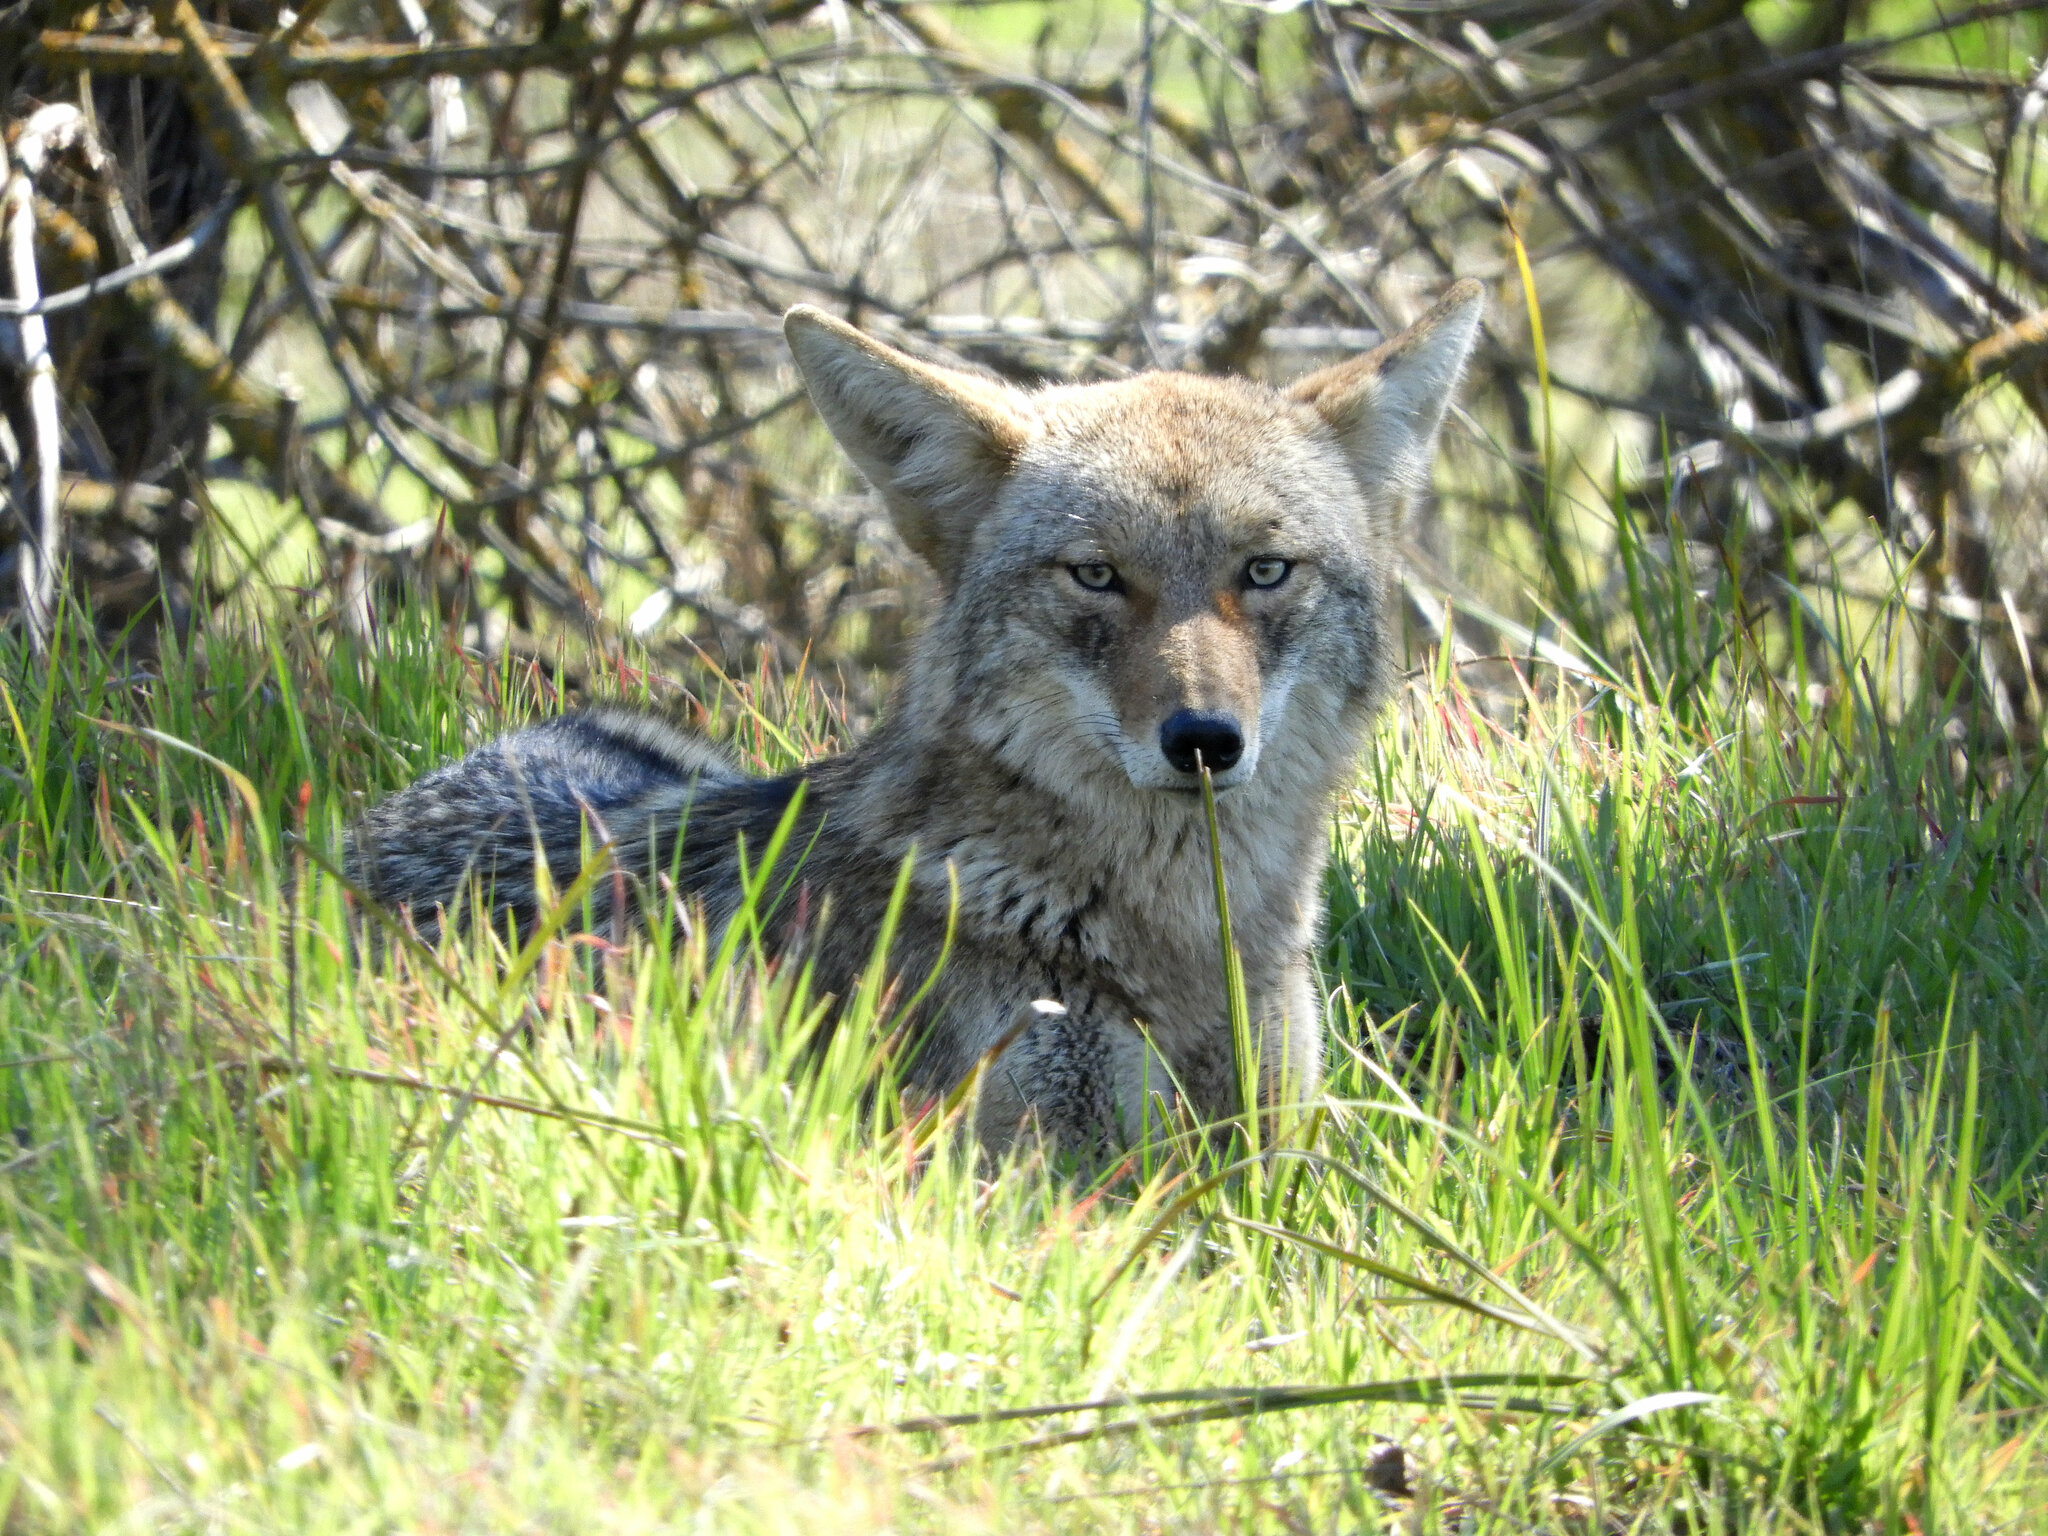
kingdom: Animalia
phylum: Chordata
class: Mammalia
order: Carnivora
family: Canidae
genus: Canis
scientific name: Canis latrans
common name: Coyote
